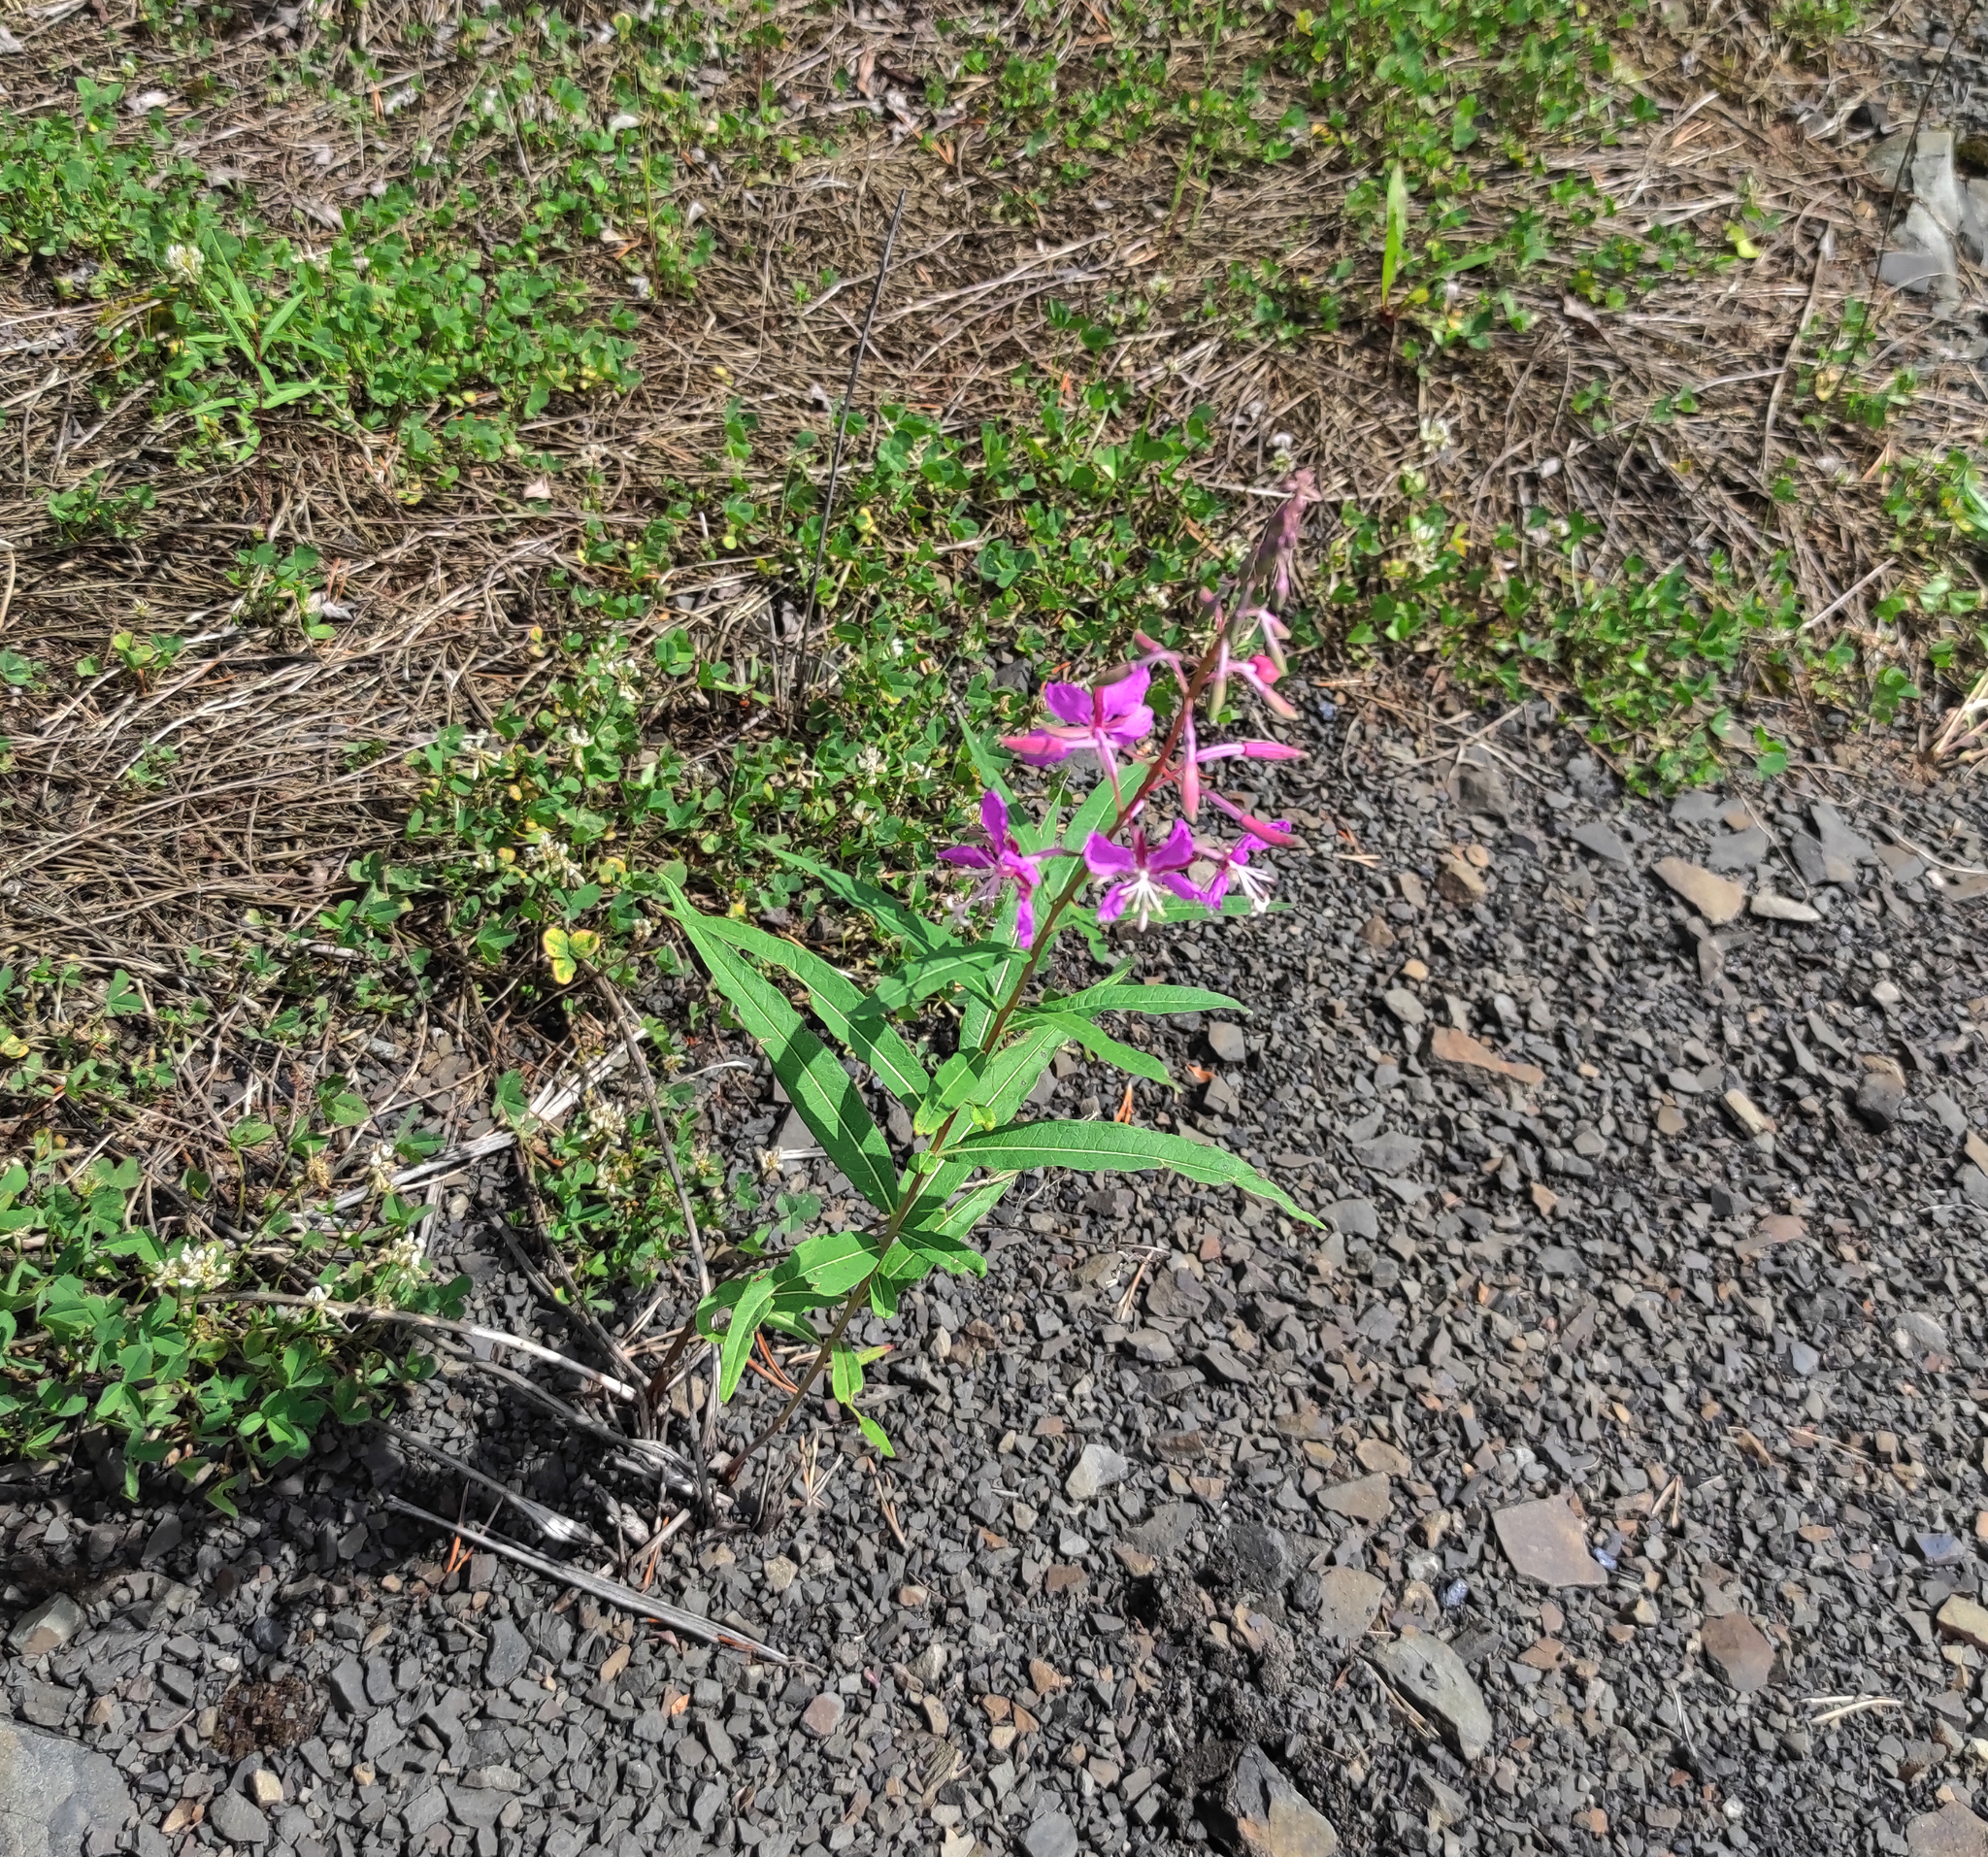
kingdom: Plantae
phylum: Tracheophyta
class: Magnoliopsida
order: Myrtales
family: Onagraceae
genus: Chamaenerion
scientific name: Chamaenerion angustifolium
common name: Fireweed
